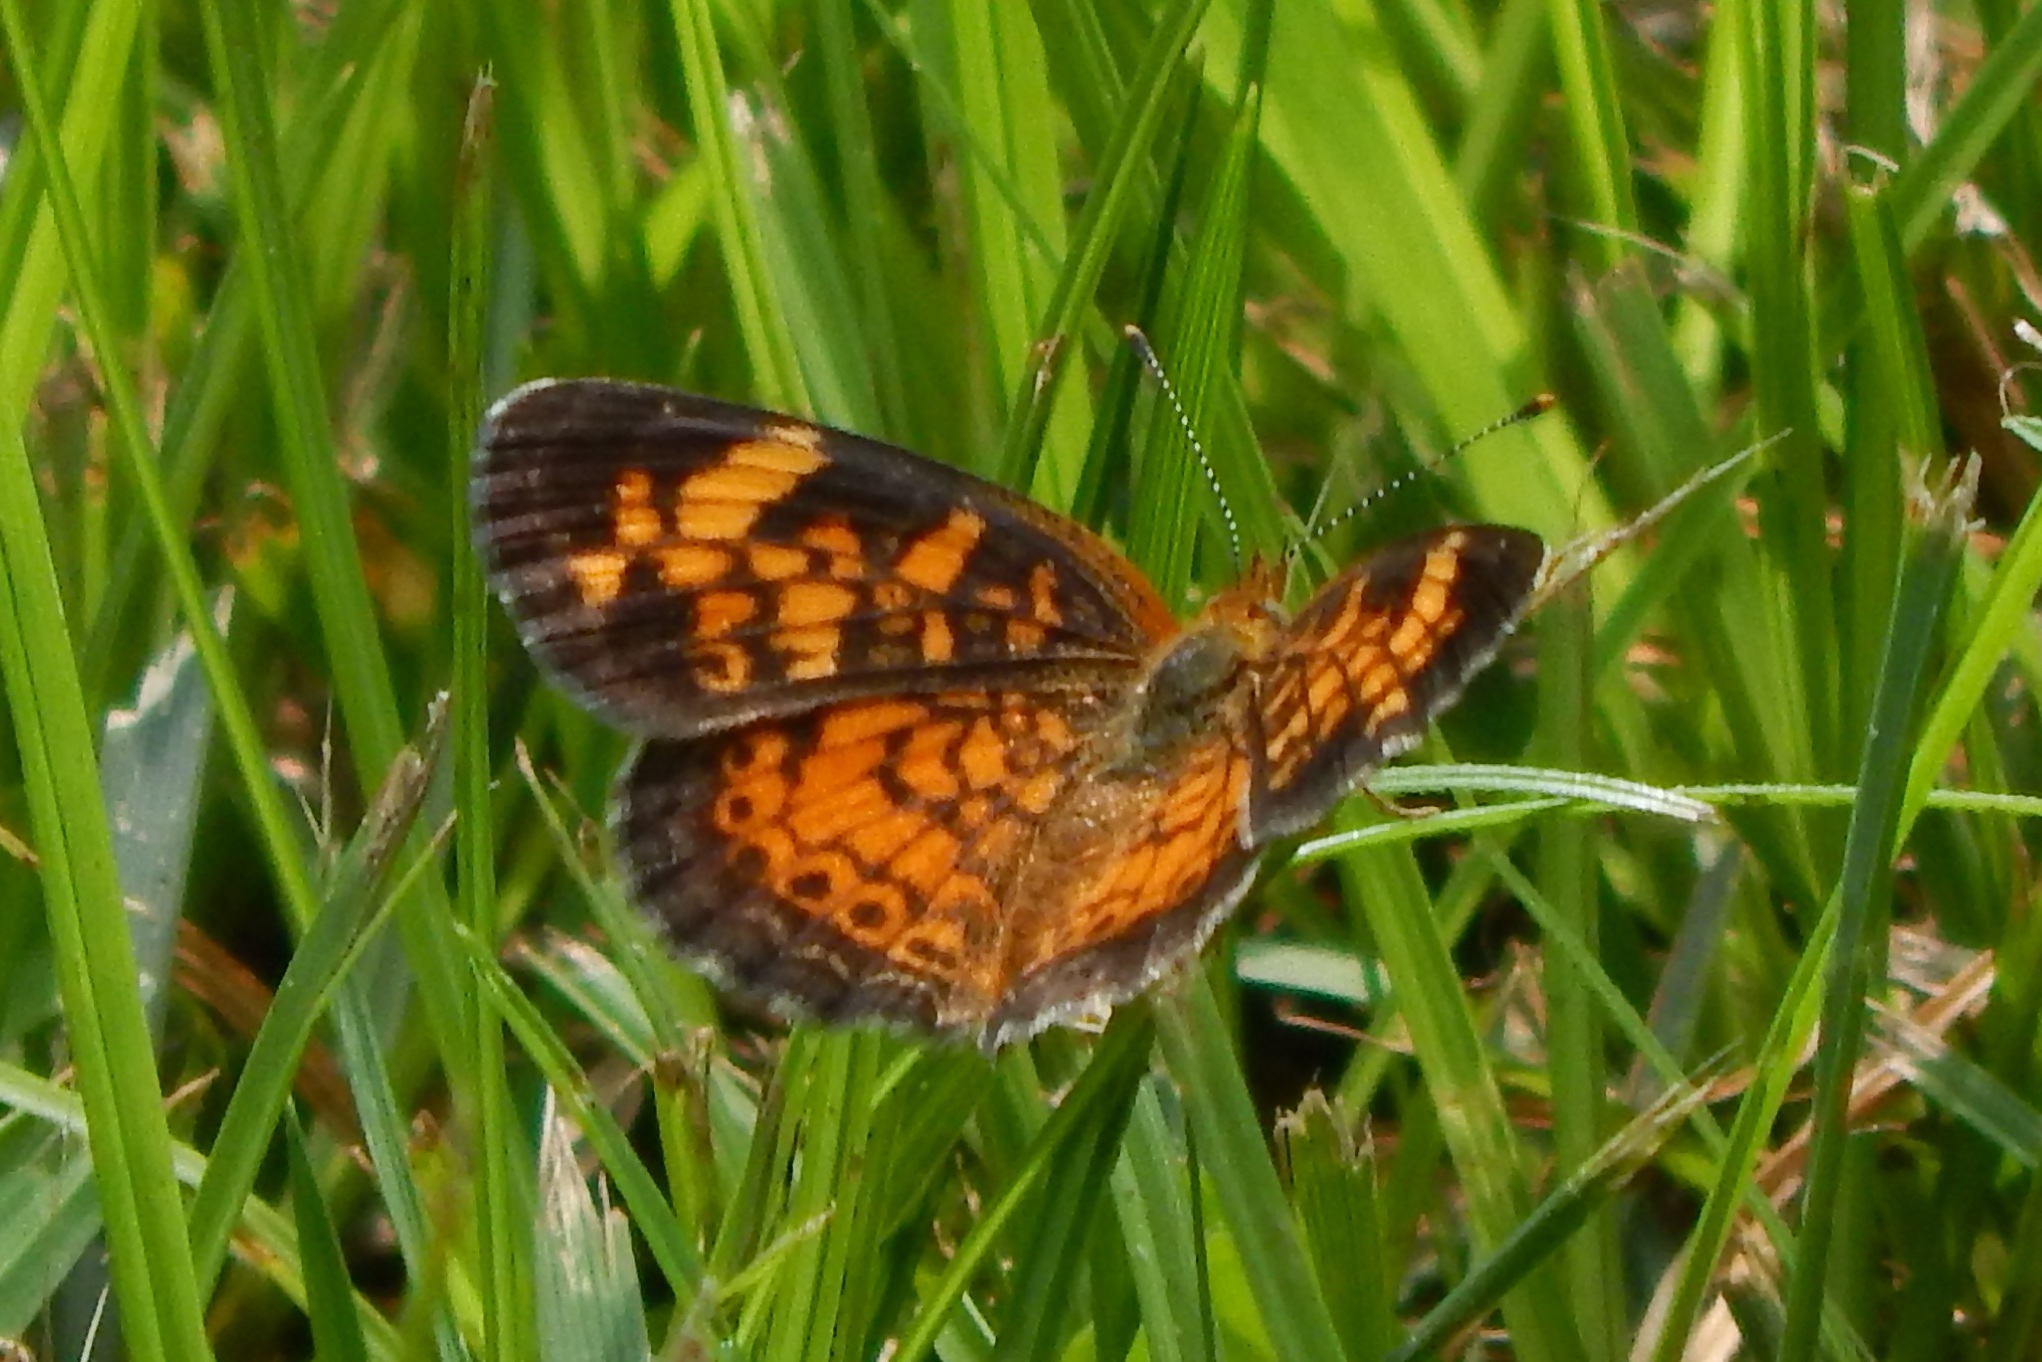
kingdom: Animalia
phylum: Arthropoda
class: Insecta
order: Lepidoptera
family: Nymphalidae
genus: Phyciodes
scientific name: Phyciodes tharos
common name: Pearl crescent
